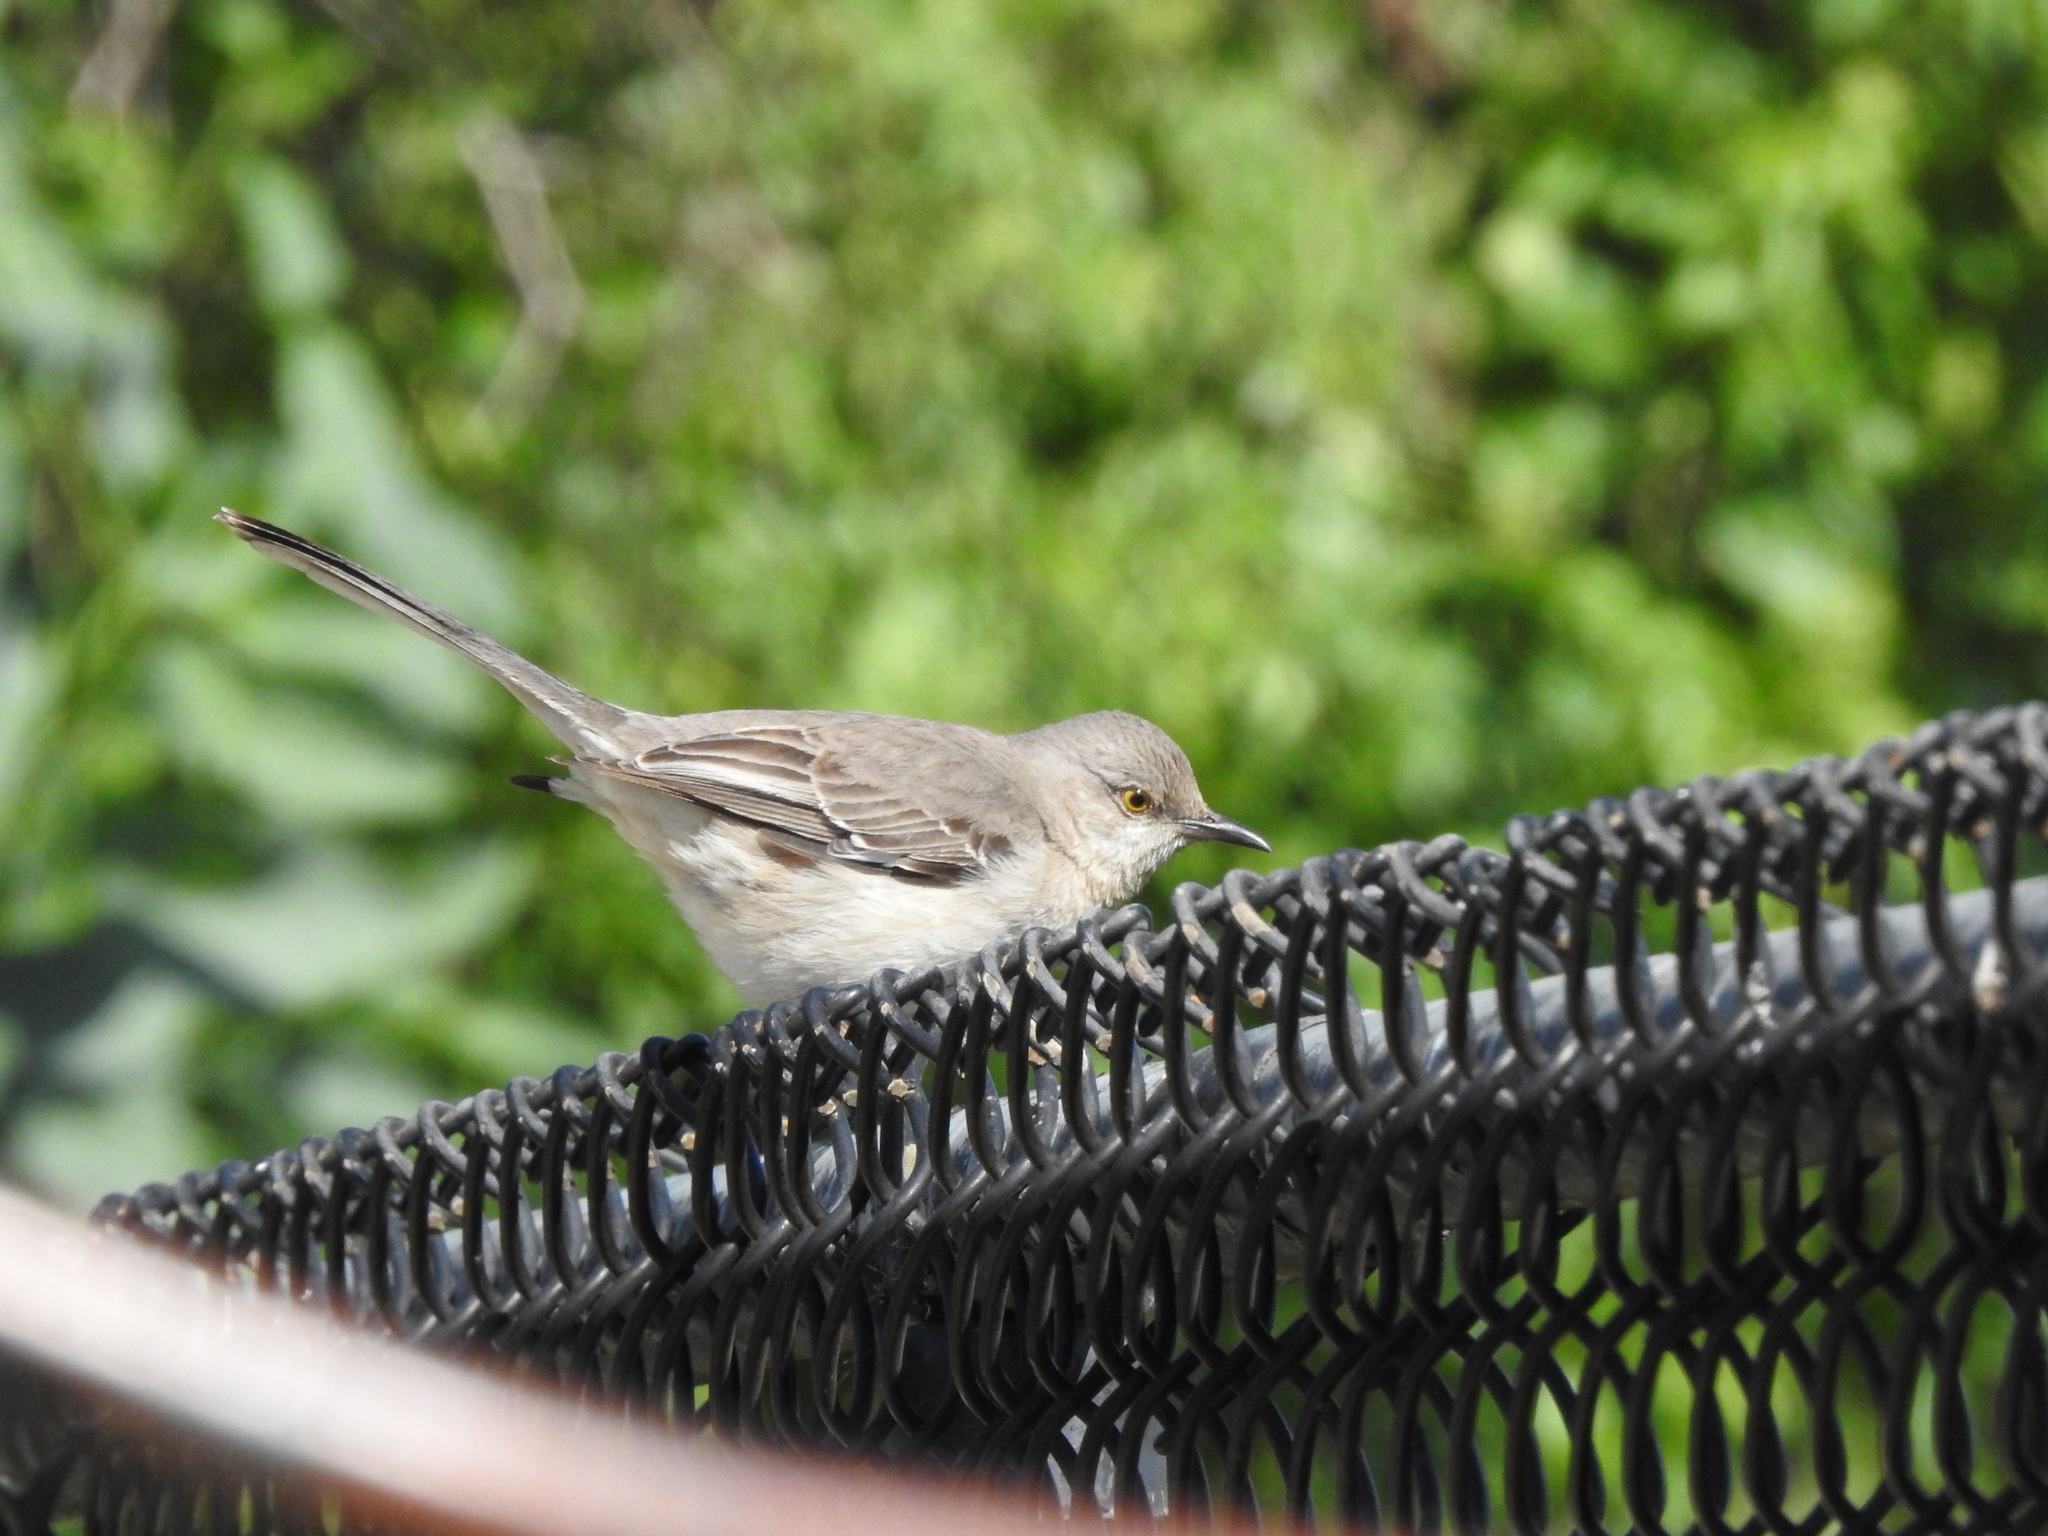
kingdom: Animalia
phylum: Chordata
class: Aves
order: Passeriformes
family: Mimidae
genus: Mimus
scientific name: Mimus polyglottos
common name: Northern mockingbird
